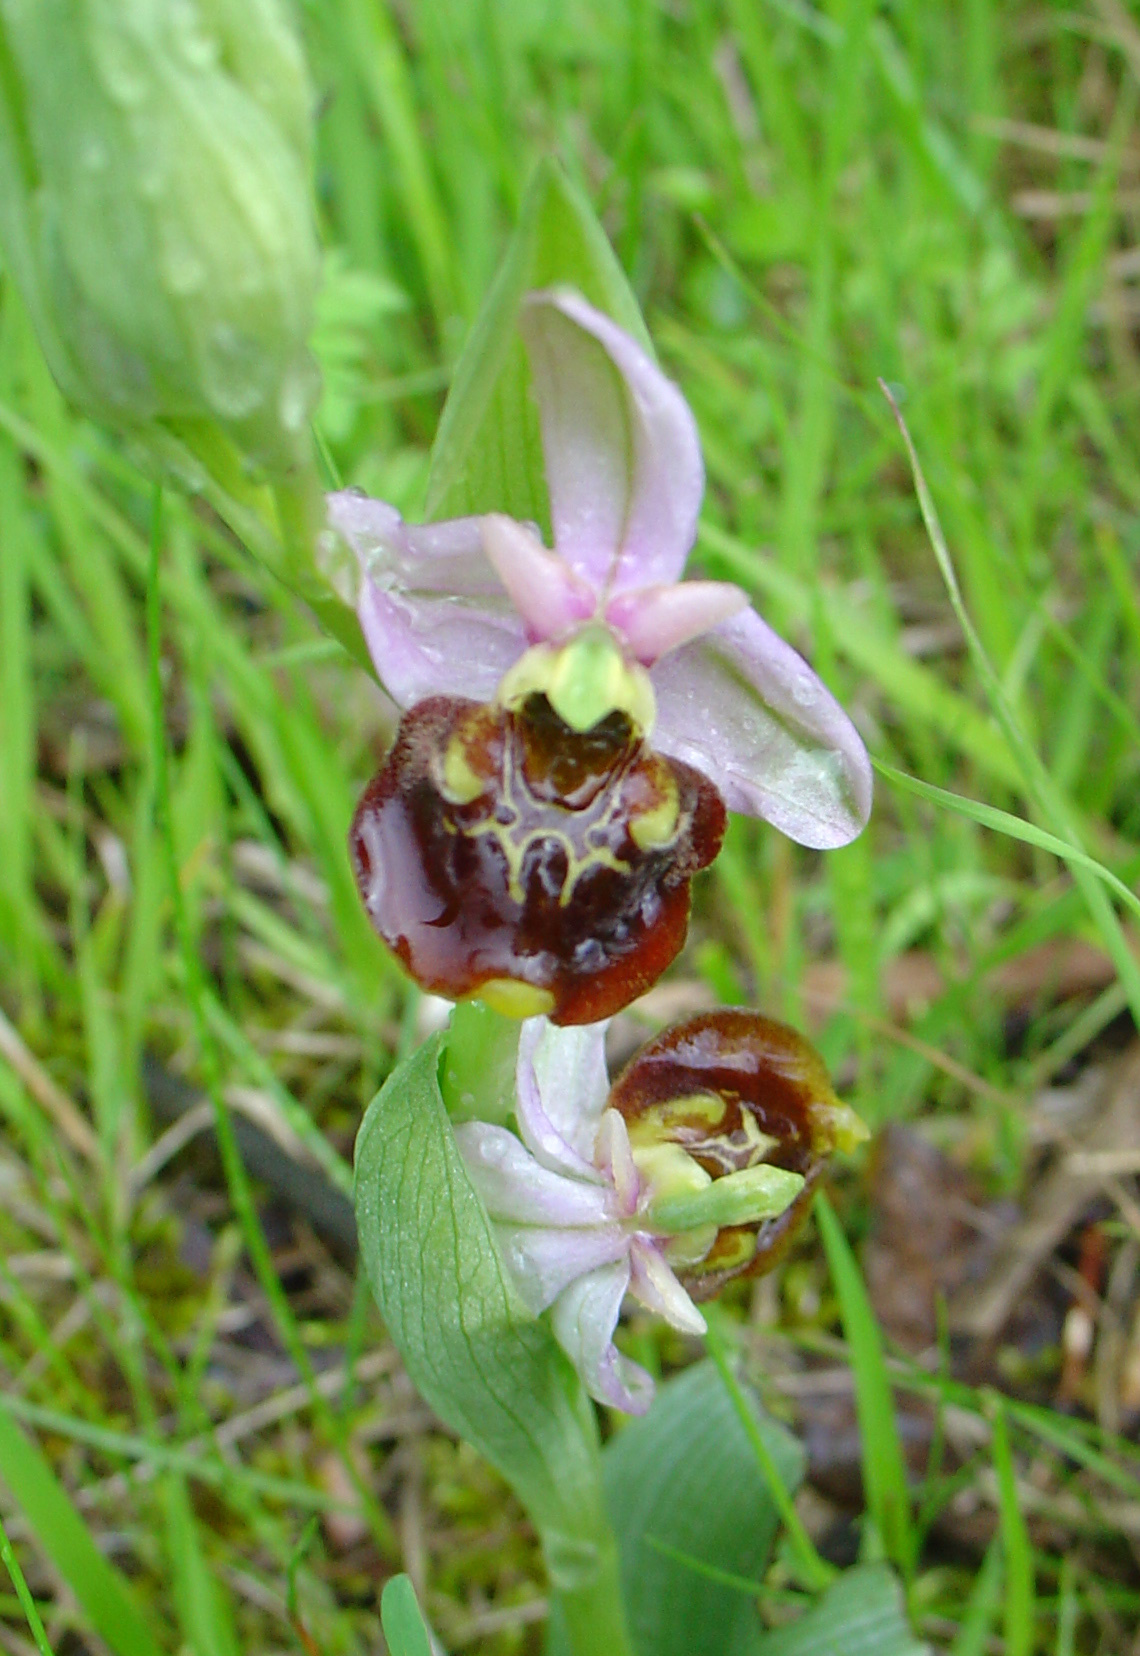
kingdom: Plantae
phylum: Tracheophyta
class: Liliopsida
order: Asparagales
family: Orchidaceae
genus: Ophrys
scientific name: Ophrys holosericea
